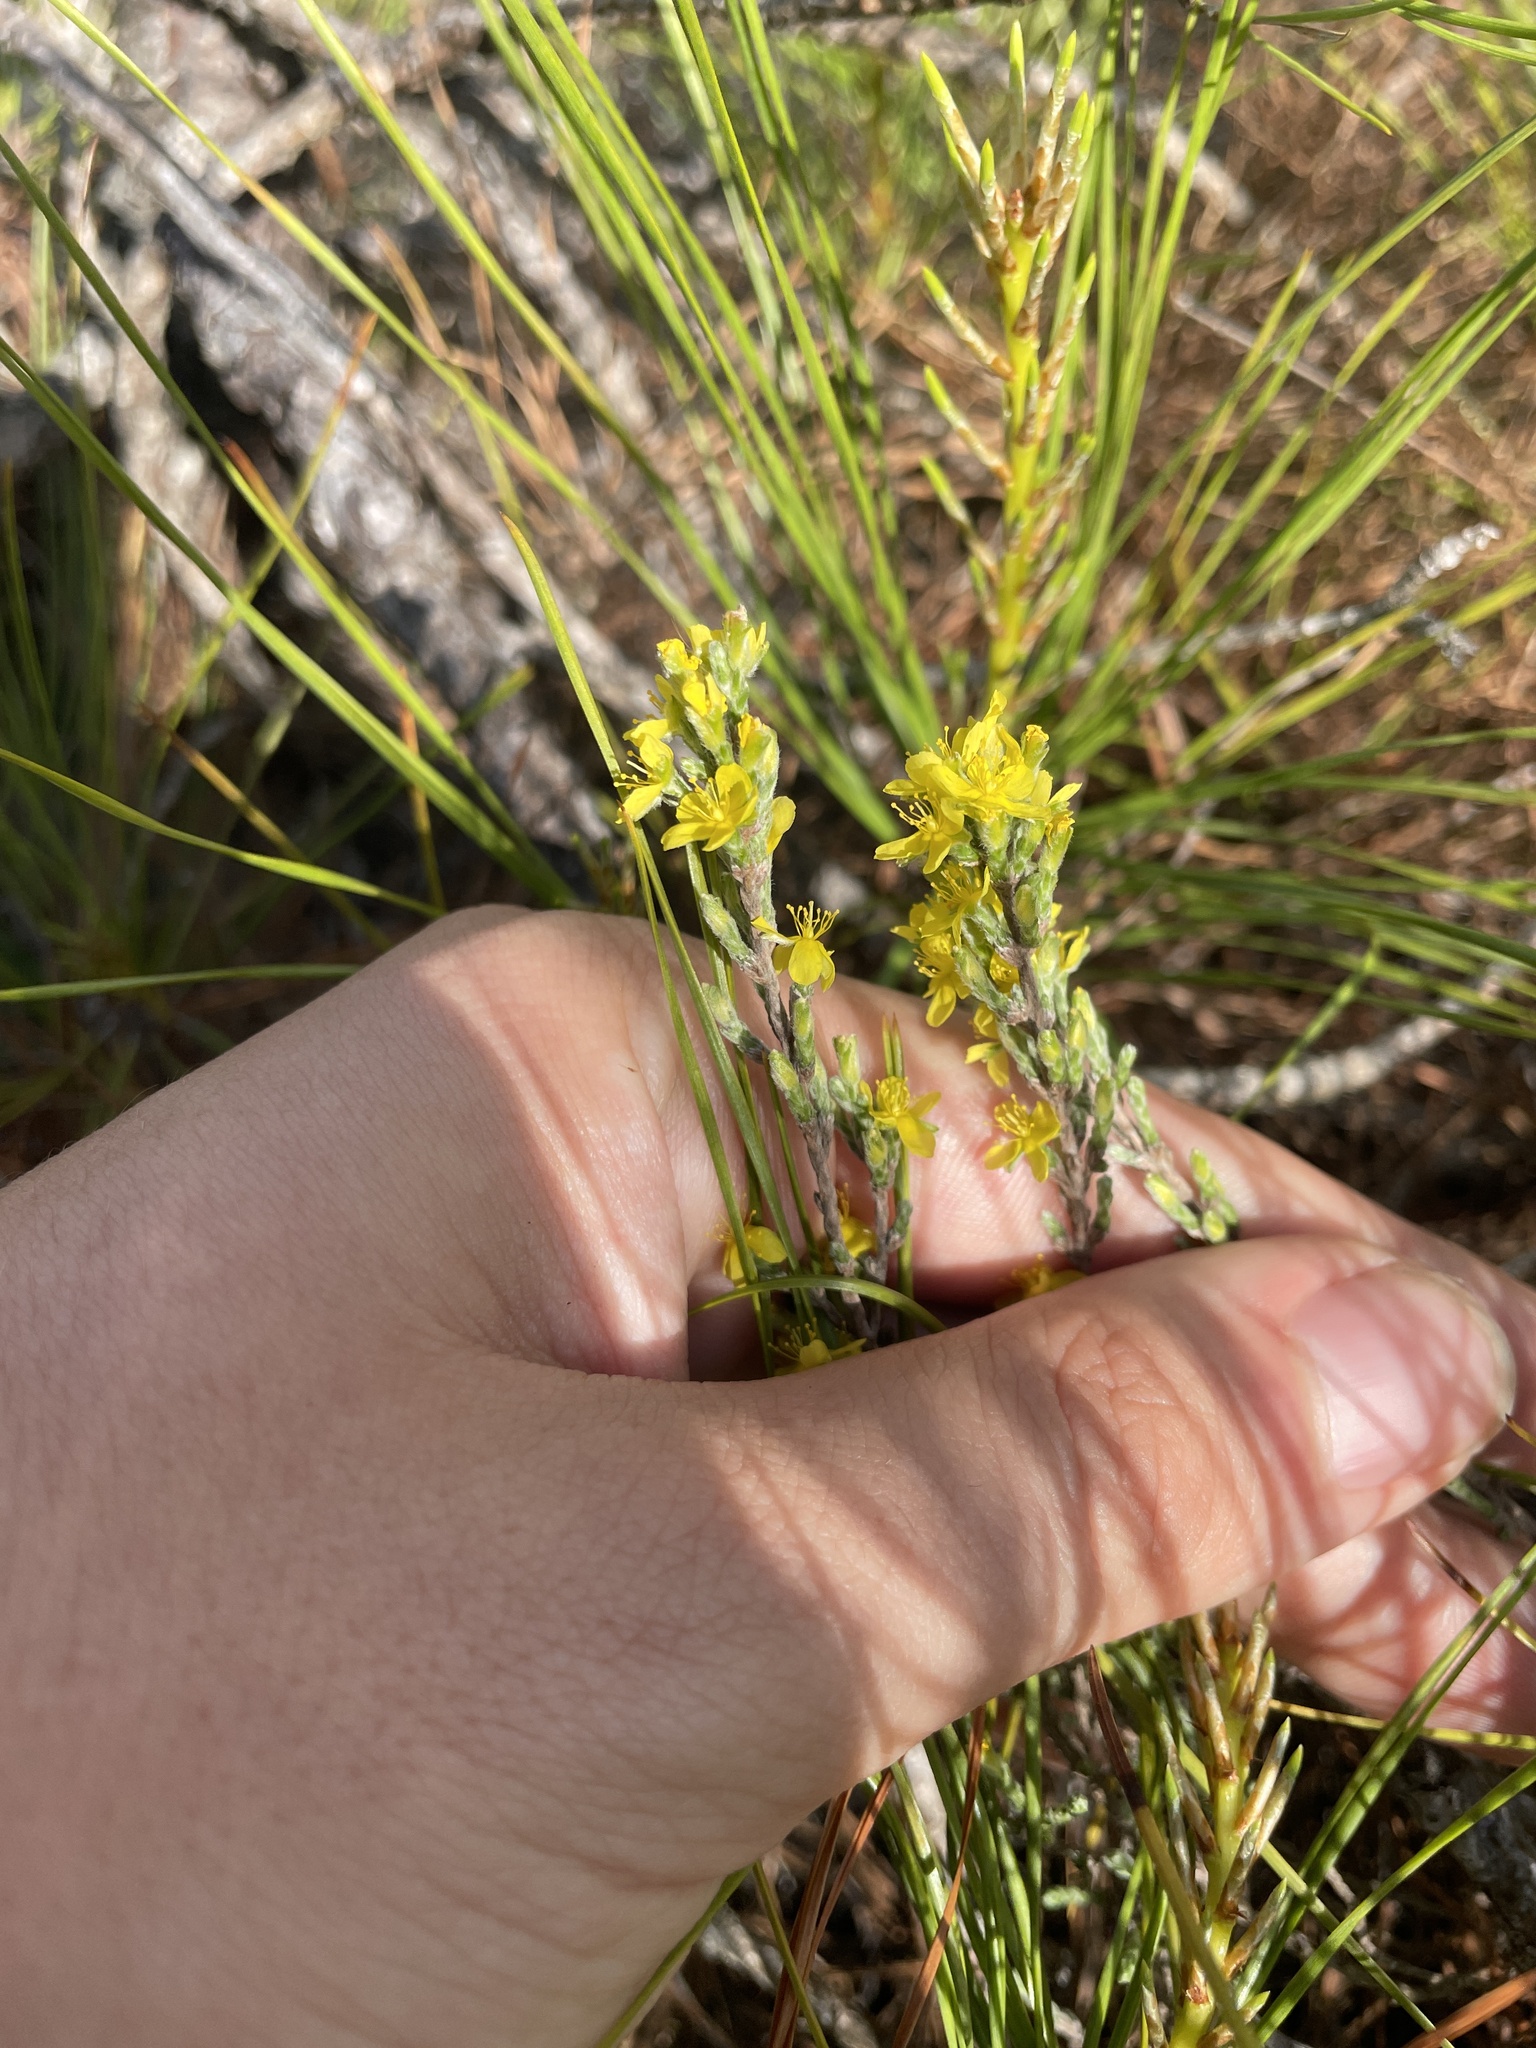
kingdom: Plantae
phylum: Tracheophyta
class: Magnoliopsida
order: Malvales
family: Cistaceae
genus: Hudsonia
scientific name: Hudsonia tomentosa
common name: Beach-heath
